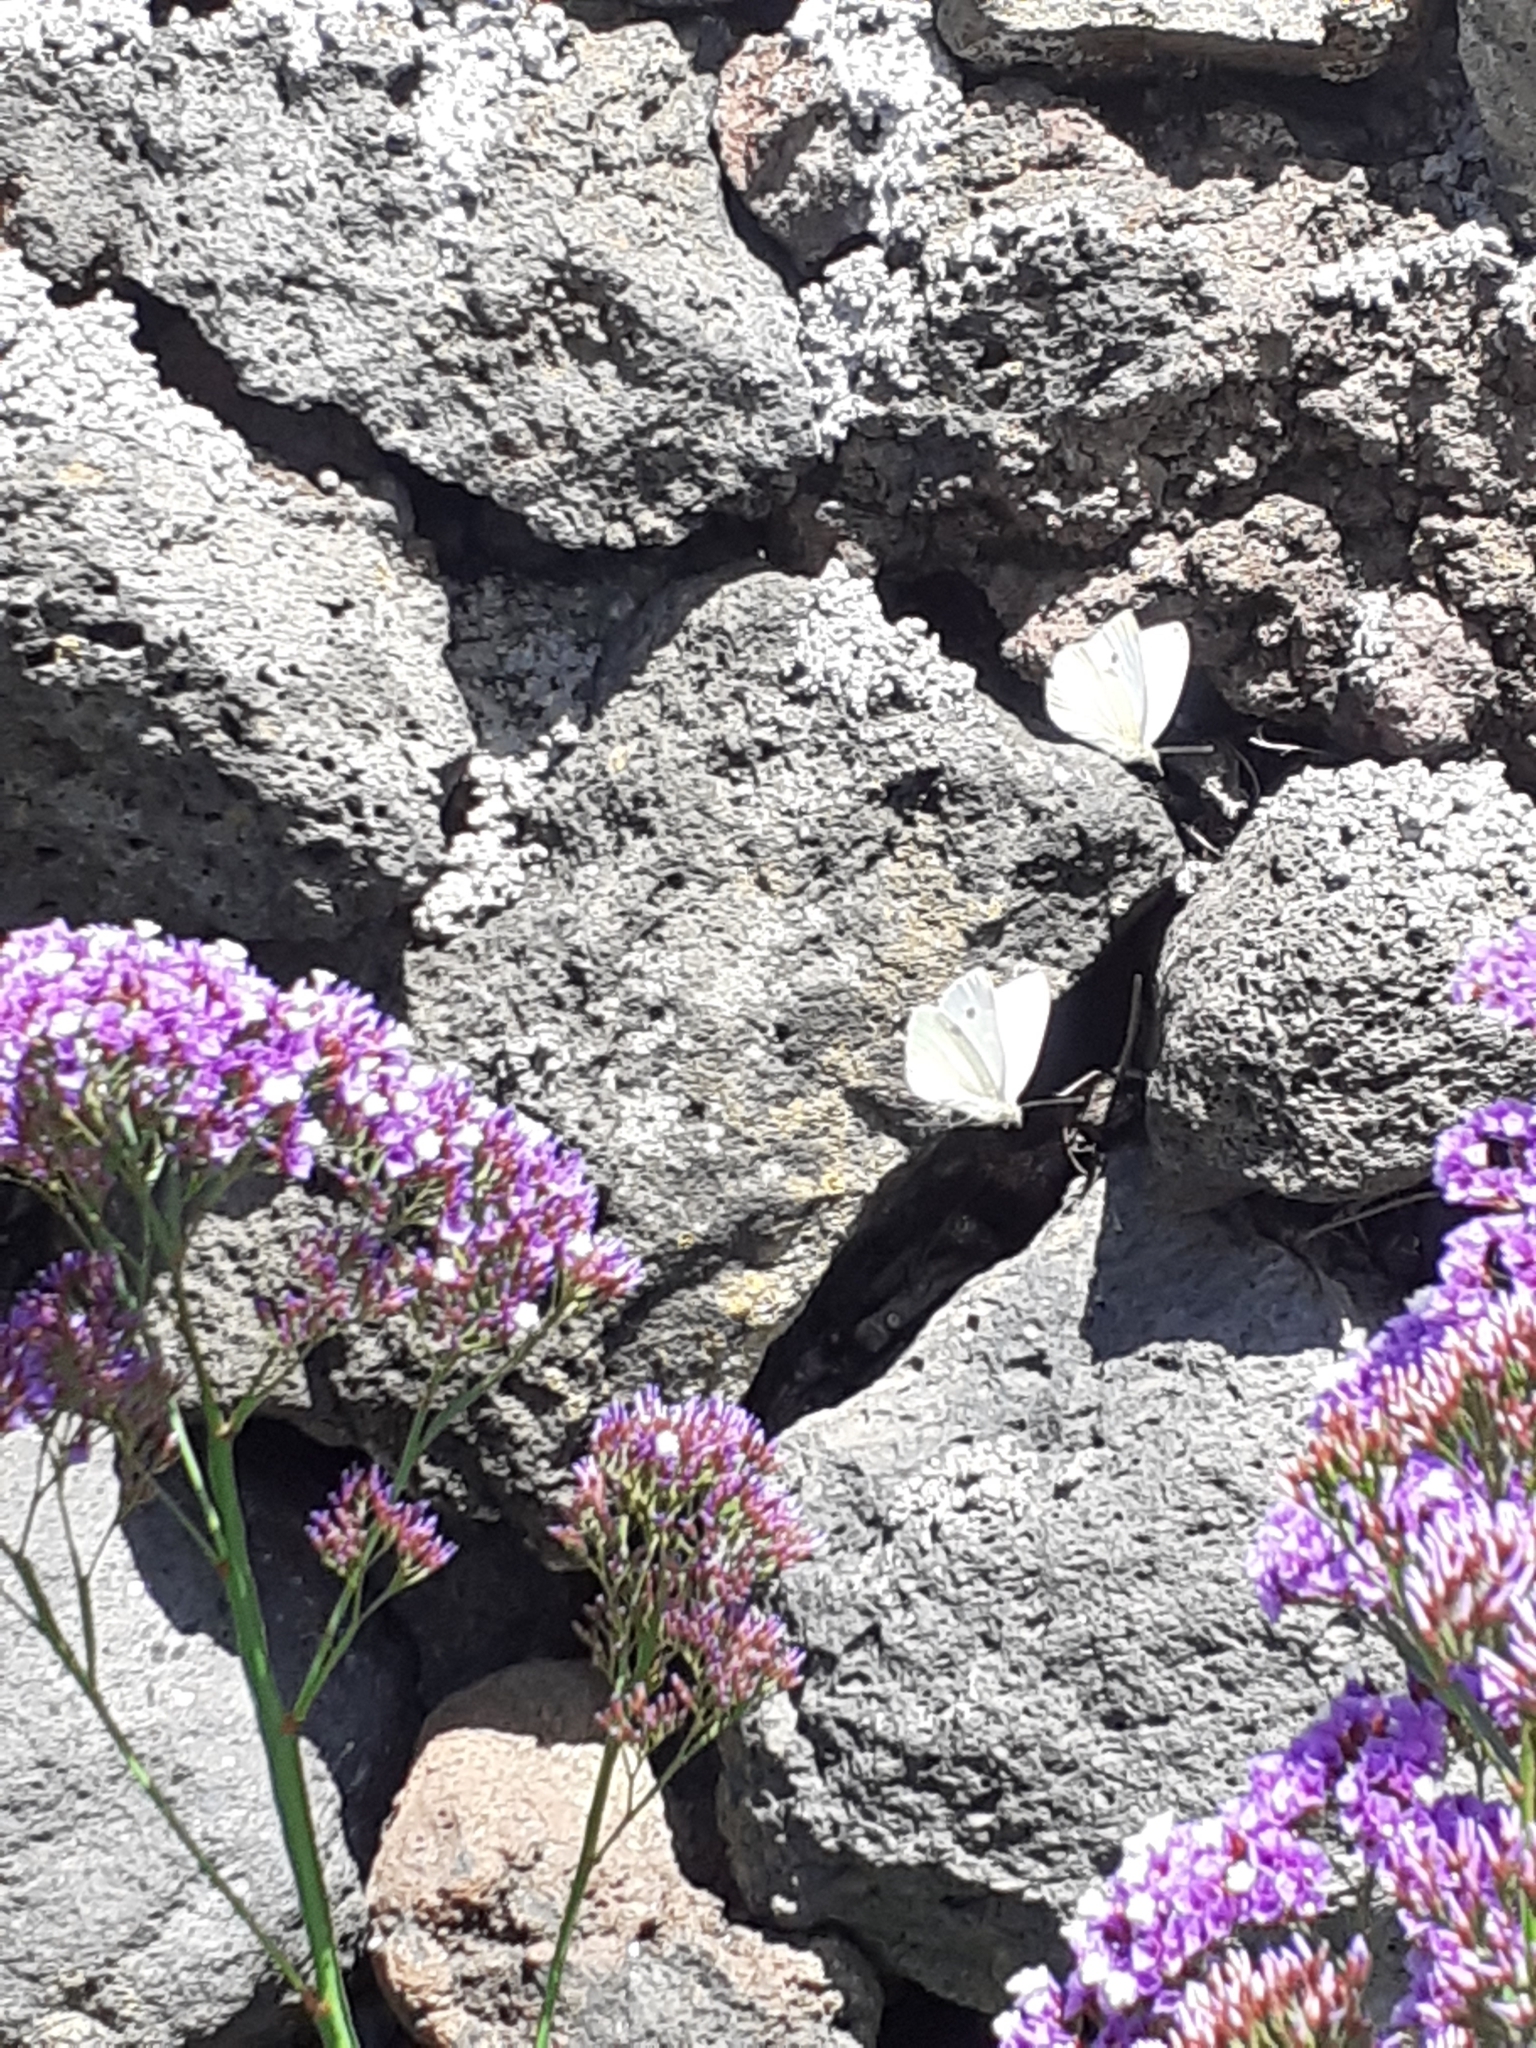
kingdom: Animalia
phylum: Arthropoda
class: Insecta
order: Lepidoptera
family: Pieridae
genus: Pieris
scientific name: Pieris rapae
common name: Small white
